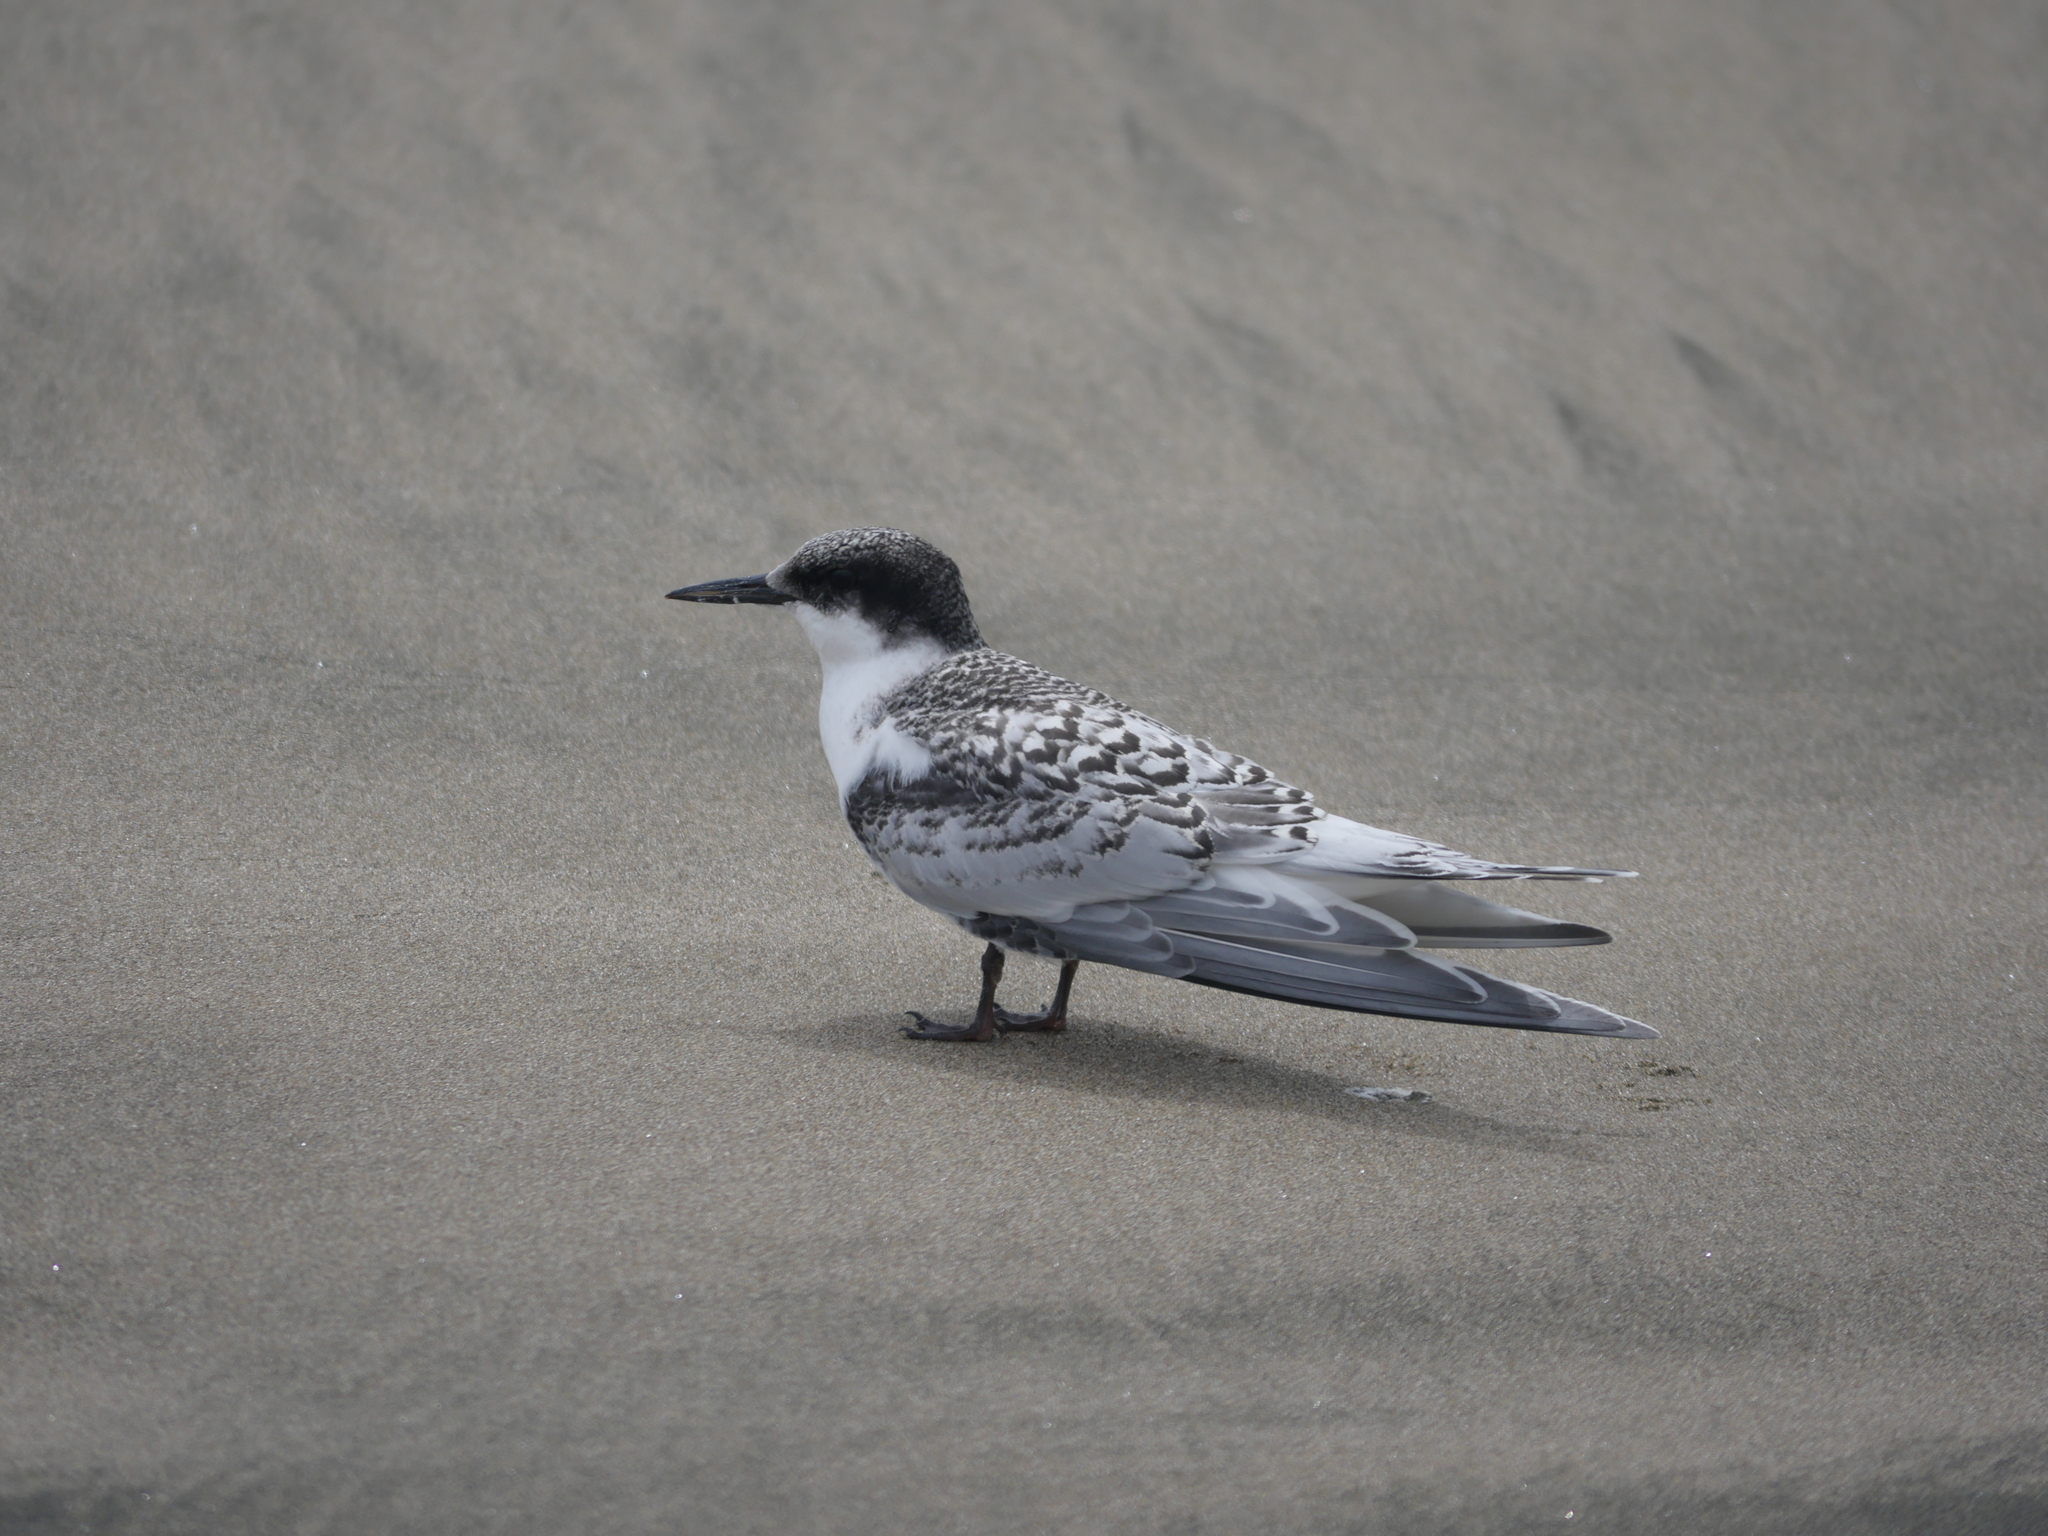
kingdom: Animalia
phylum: Chordata
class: Aves
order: Charadriiformes
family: Laridae
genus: Sterna
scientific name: Sterna striata
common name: White-fronted tern
